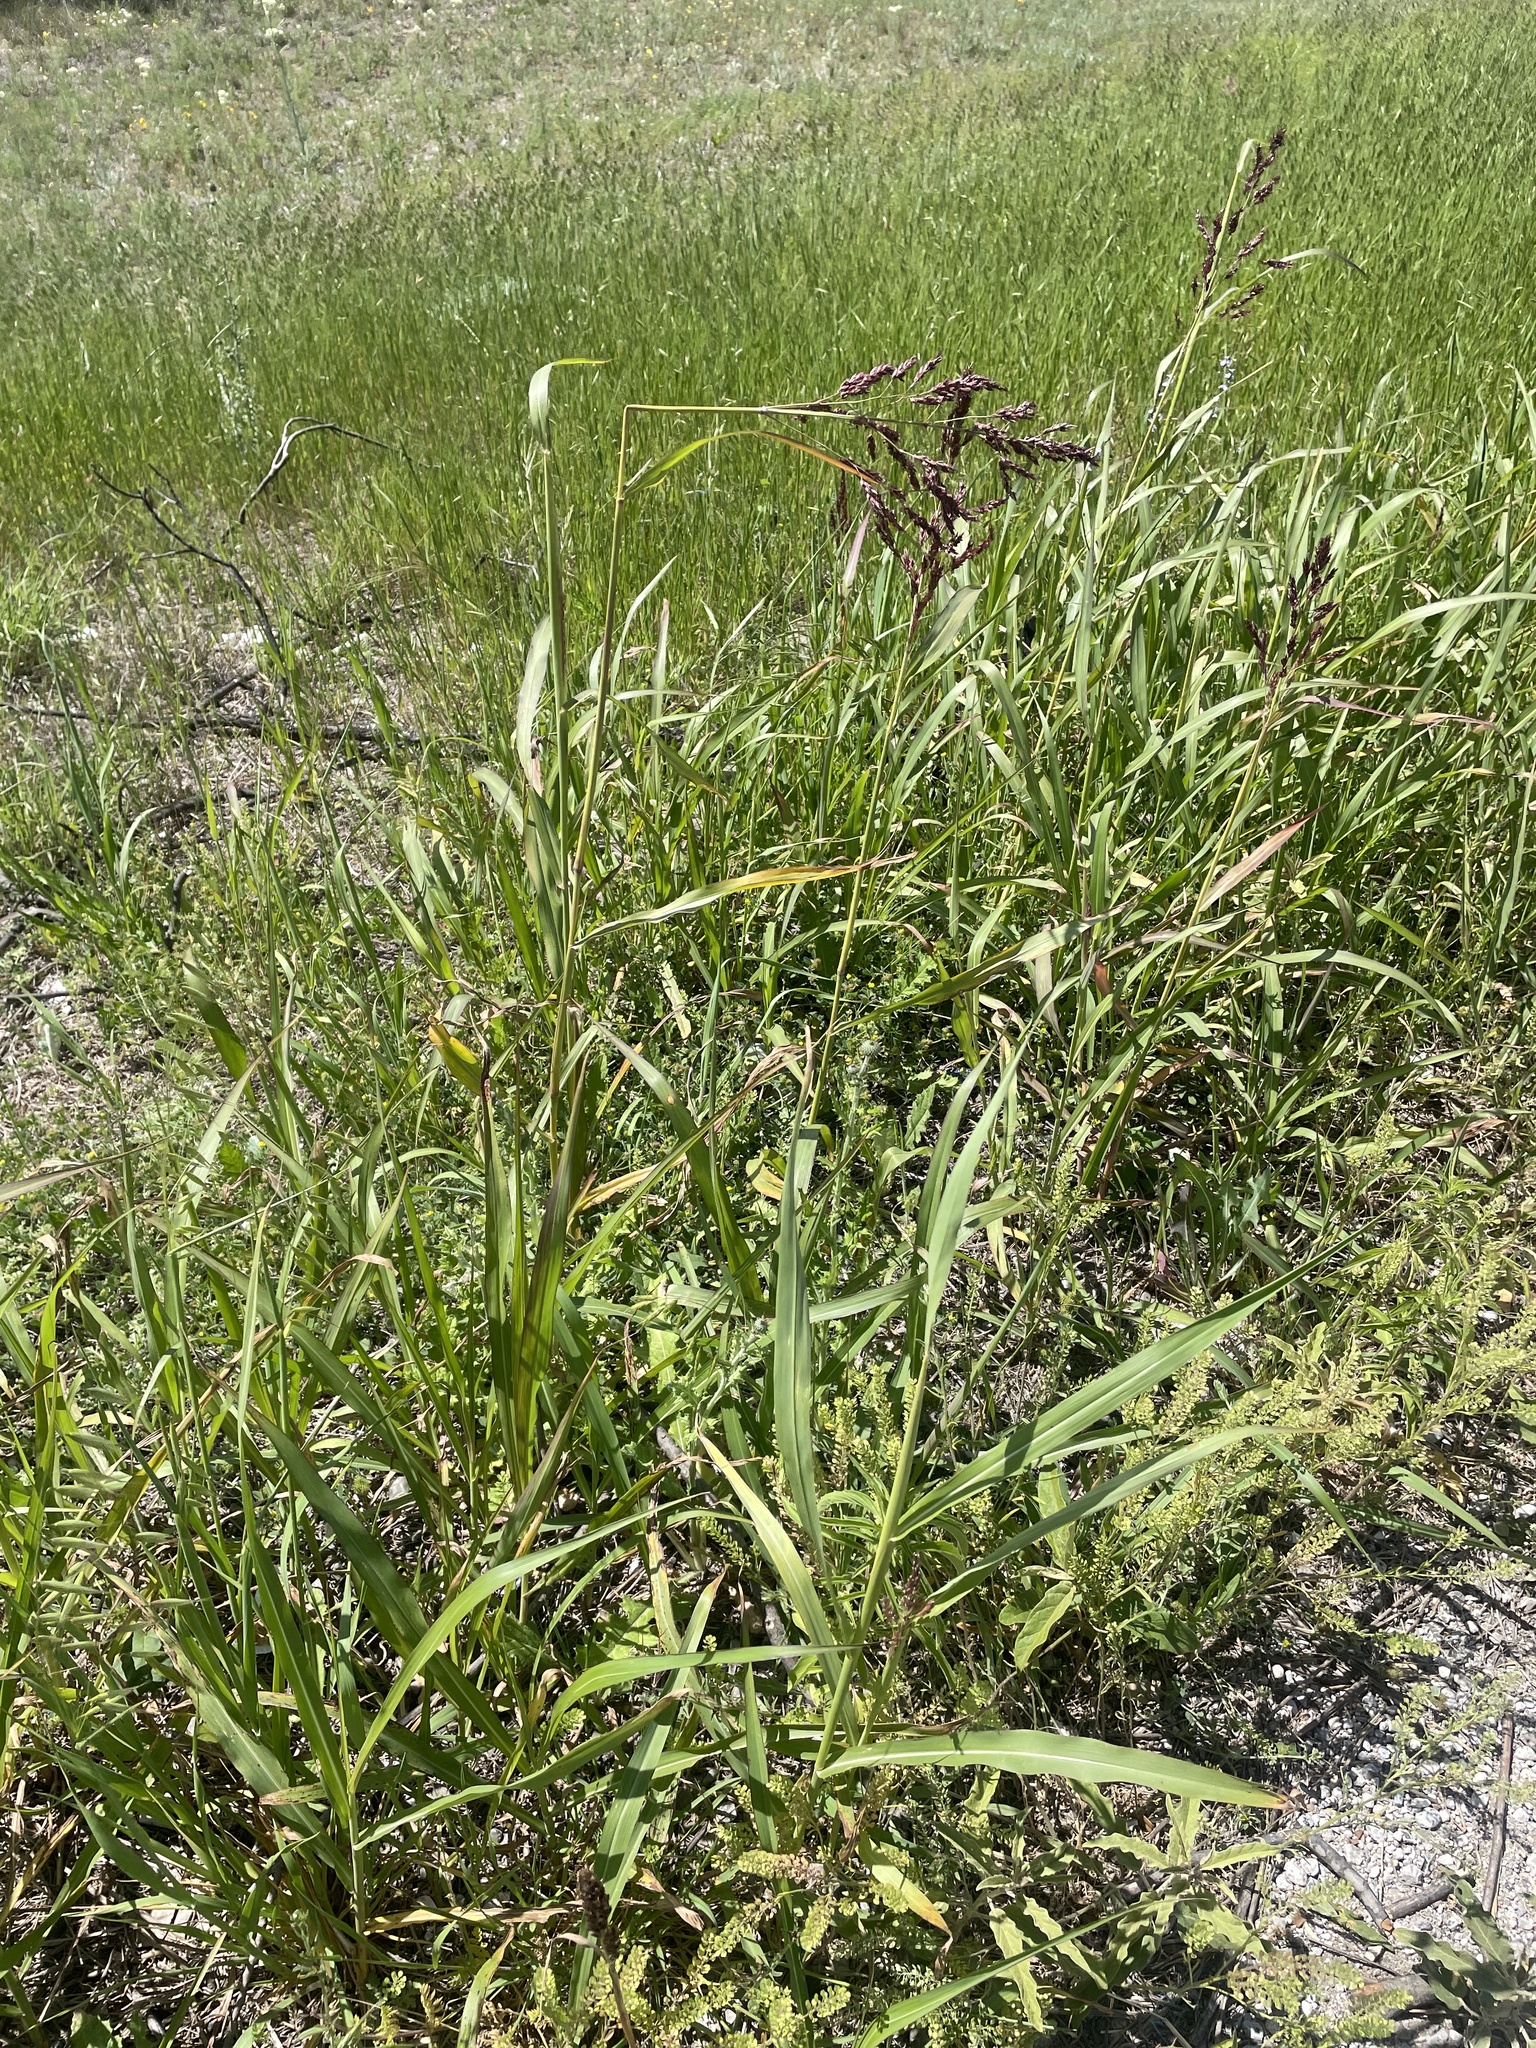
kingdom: Plantae
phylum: Tracheophyta
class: Liliopsida
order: Poales
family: Poaceae
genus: Sorghum
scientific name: Sorghum halepense
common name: Johnson-grass
